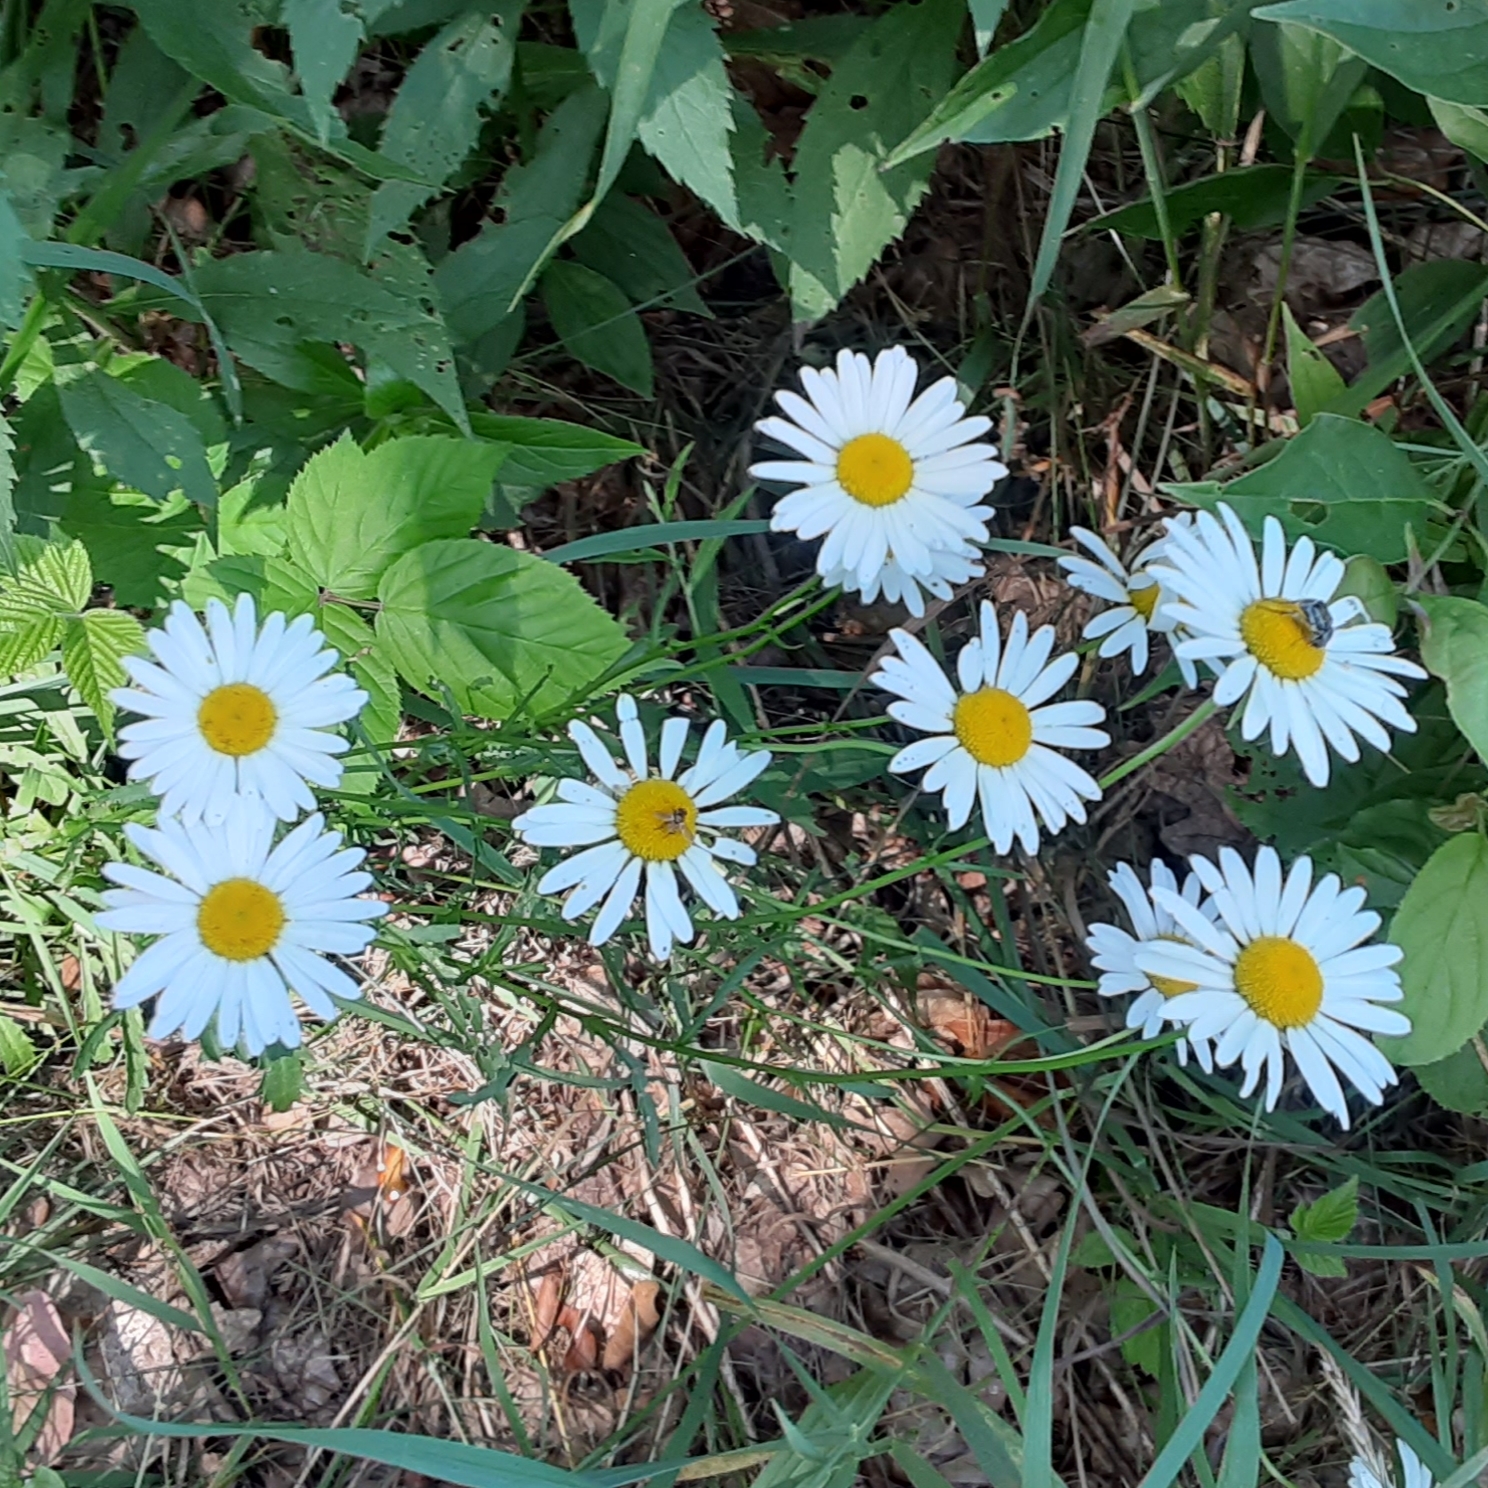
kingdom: Plantae
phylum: Tracheophyta
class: Magnoliopsida
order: Asterales
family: Asteraceae
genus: Leucanthemum
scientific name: Leucanthemum vulgare
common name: Oxeye daisy
